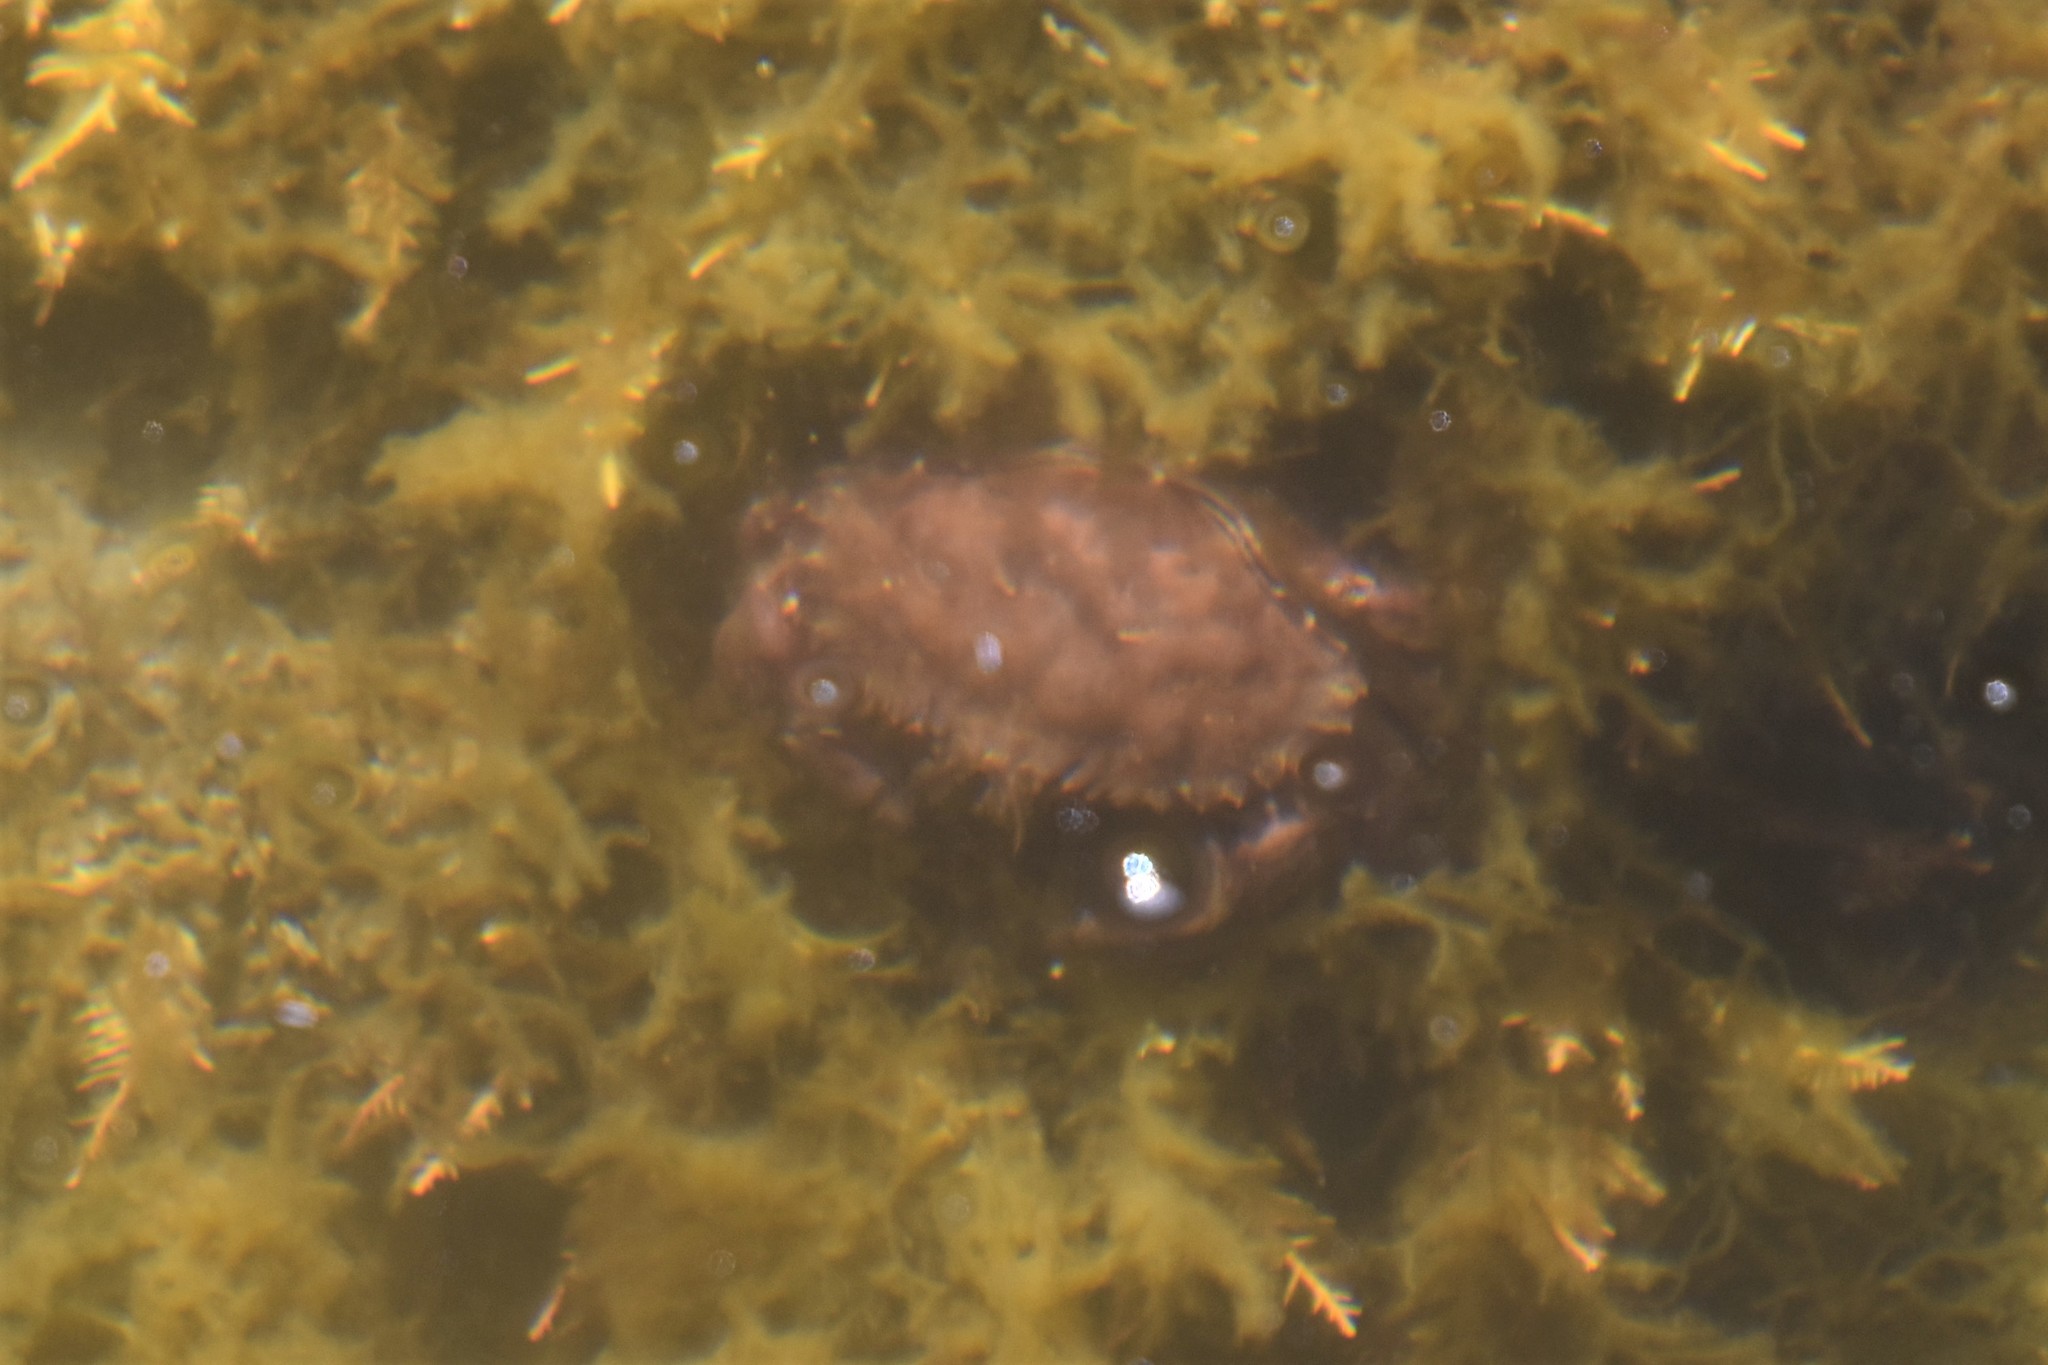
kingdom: Animalia
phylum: Arthropoda
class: Malacostraca
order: Decapoda
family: Cancridae
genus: Romaleon
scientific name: Romaleon antennarium
